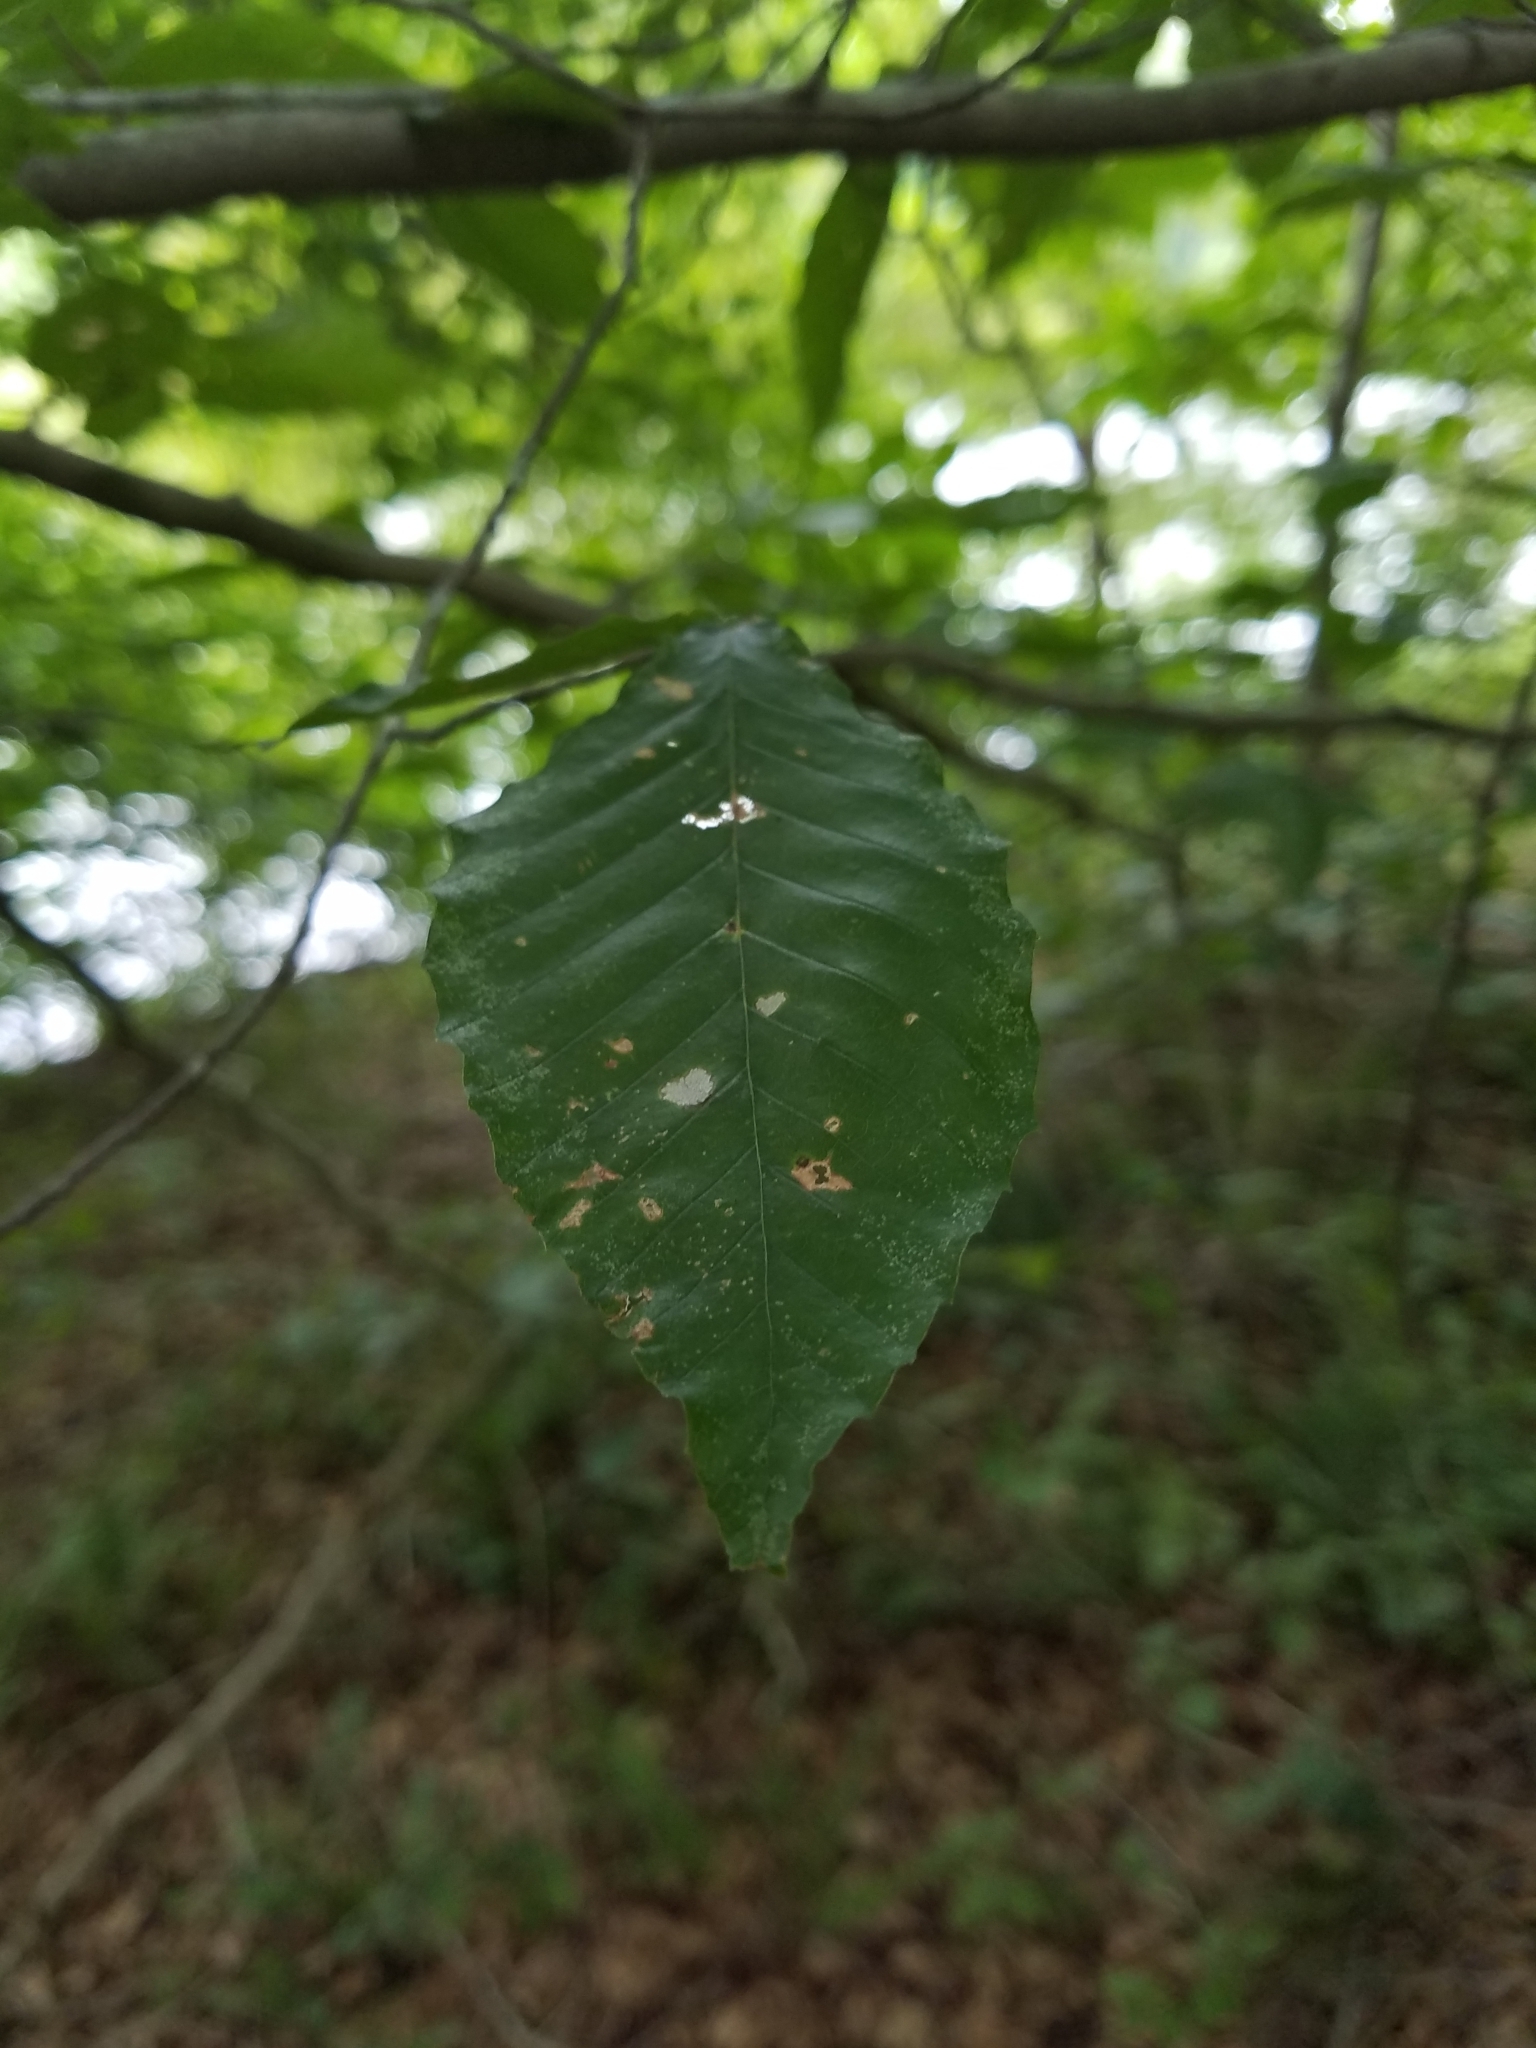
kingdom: Plantae
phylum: Tracheophyta
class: Magnoliopsida
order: Fagales
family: Fagaceae
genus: Fagus
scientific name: Fagus grandifolia
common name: American beech
